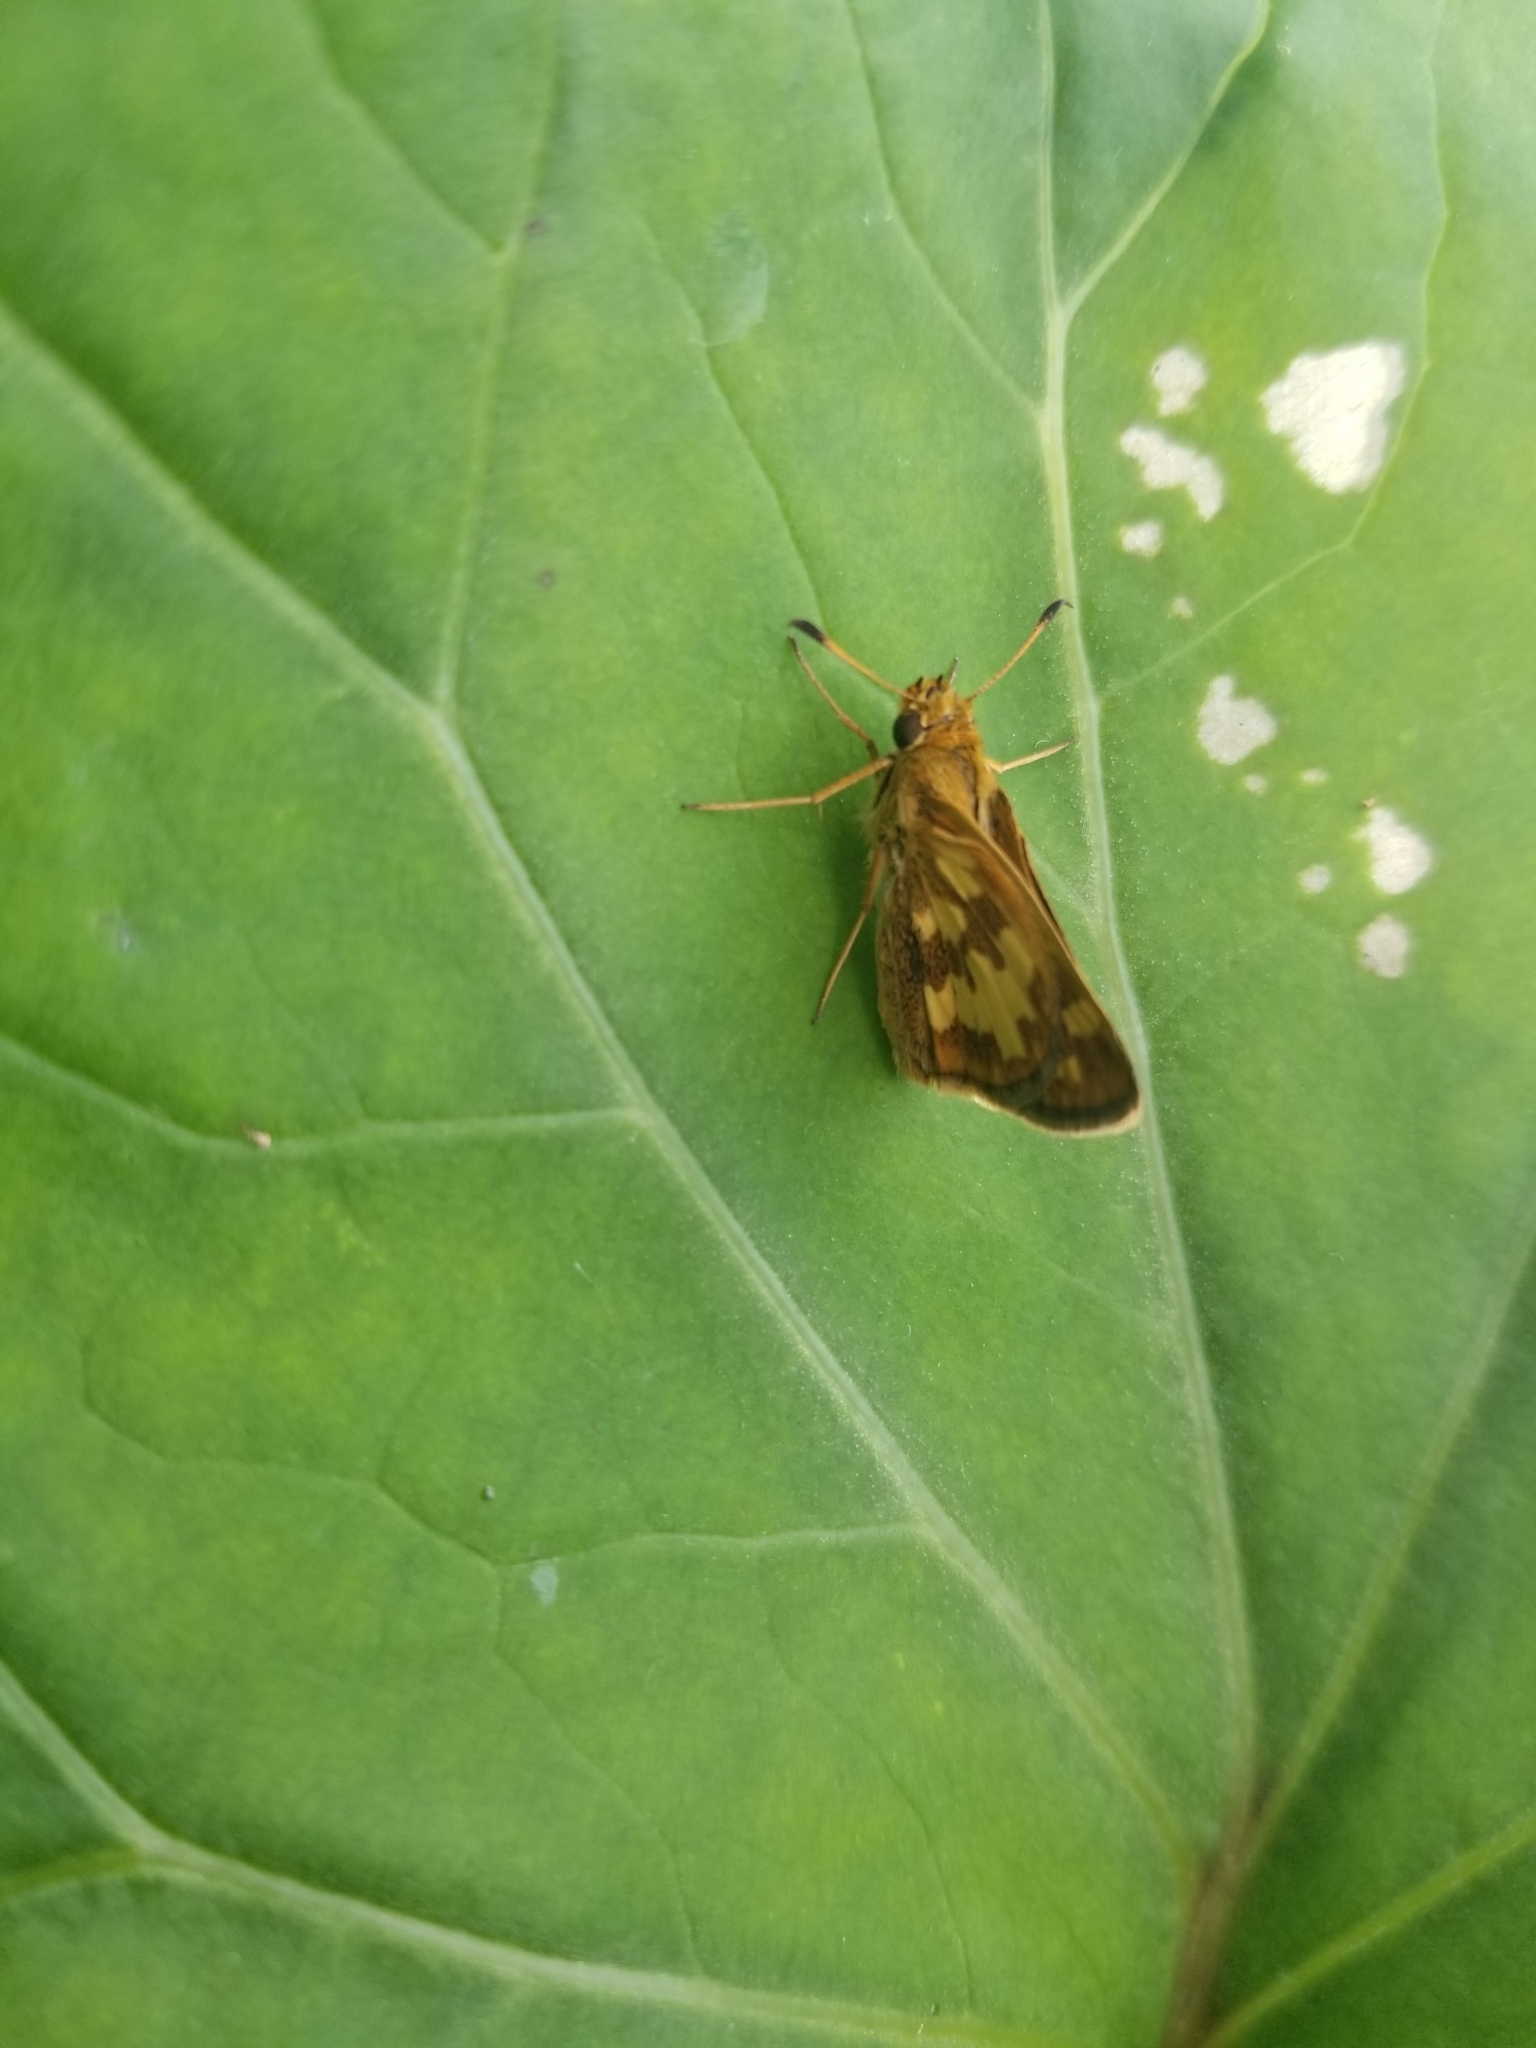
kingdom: Animalia
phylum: Arthropoda
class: Insecta
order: Lepidoptera
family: Hesperiidae
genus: Polites
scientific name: Polites coras
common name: Peck's skipper
